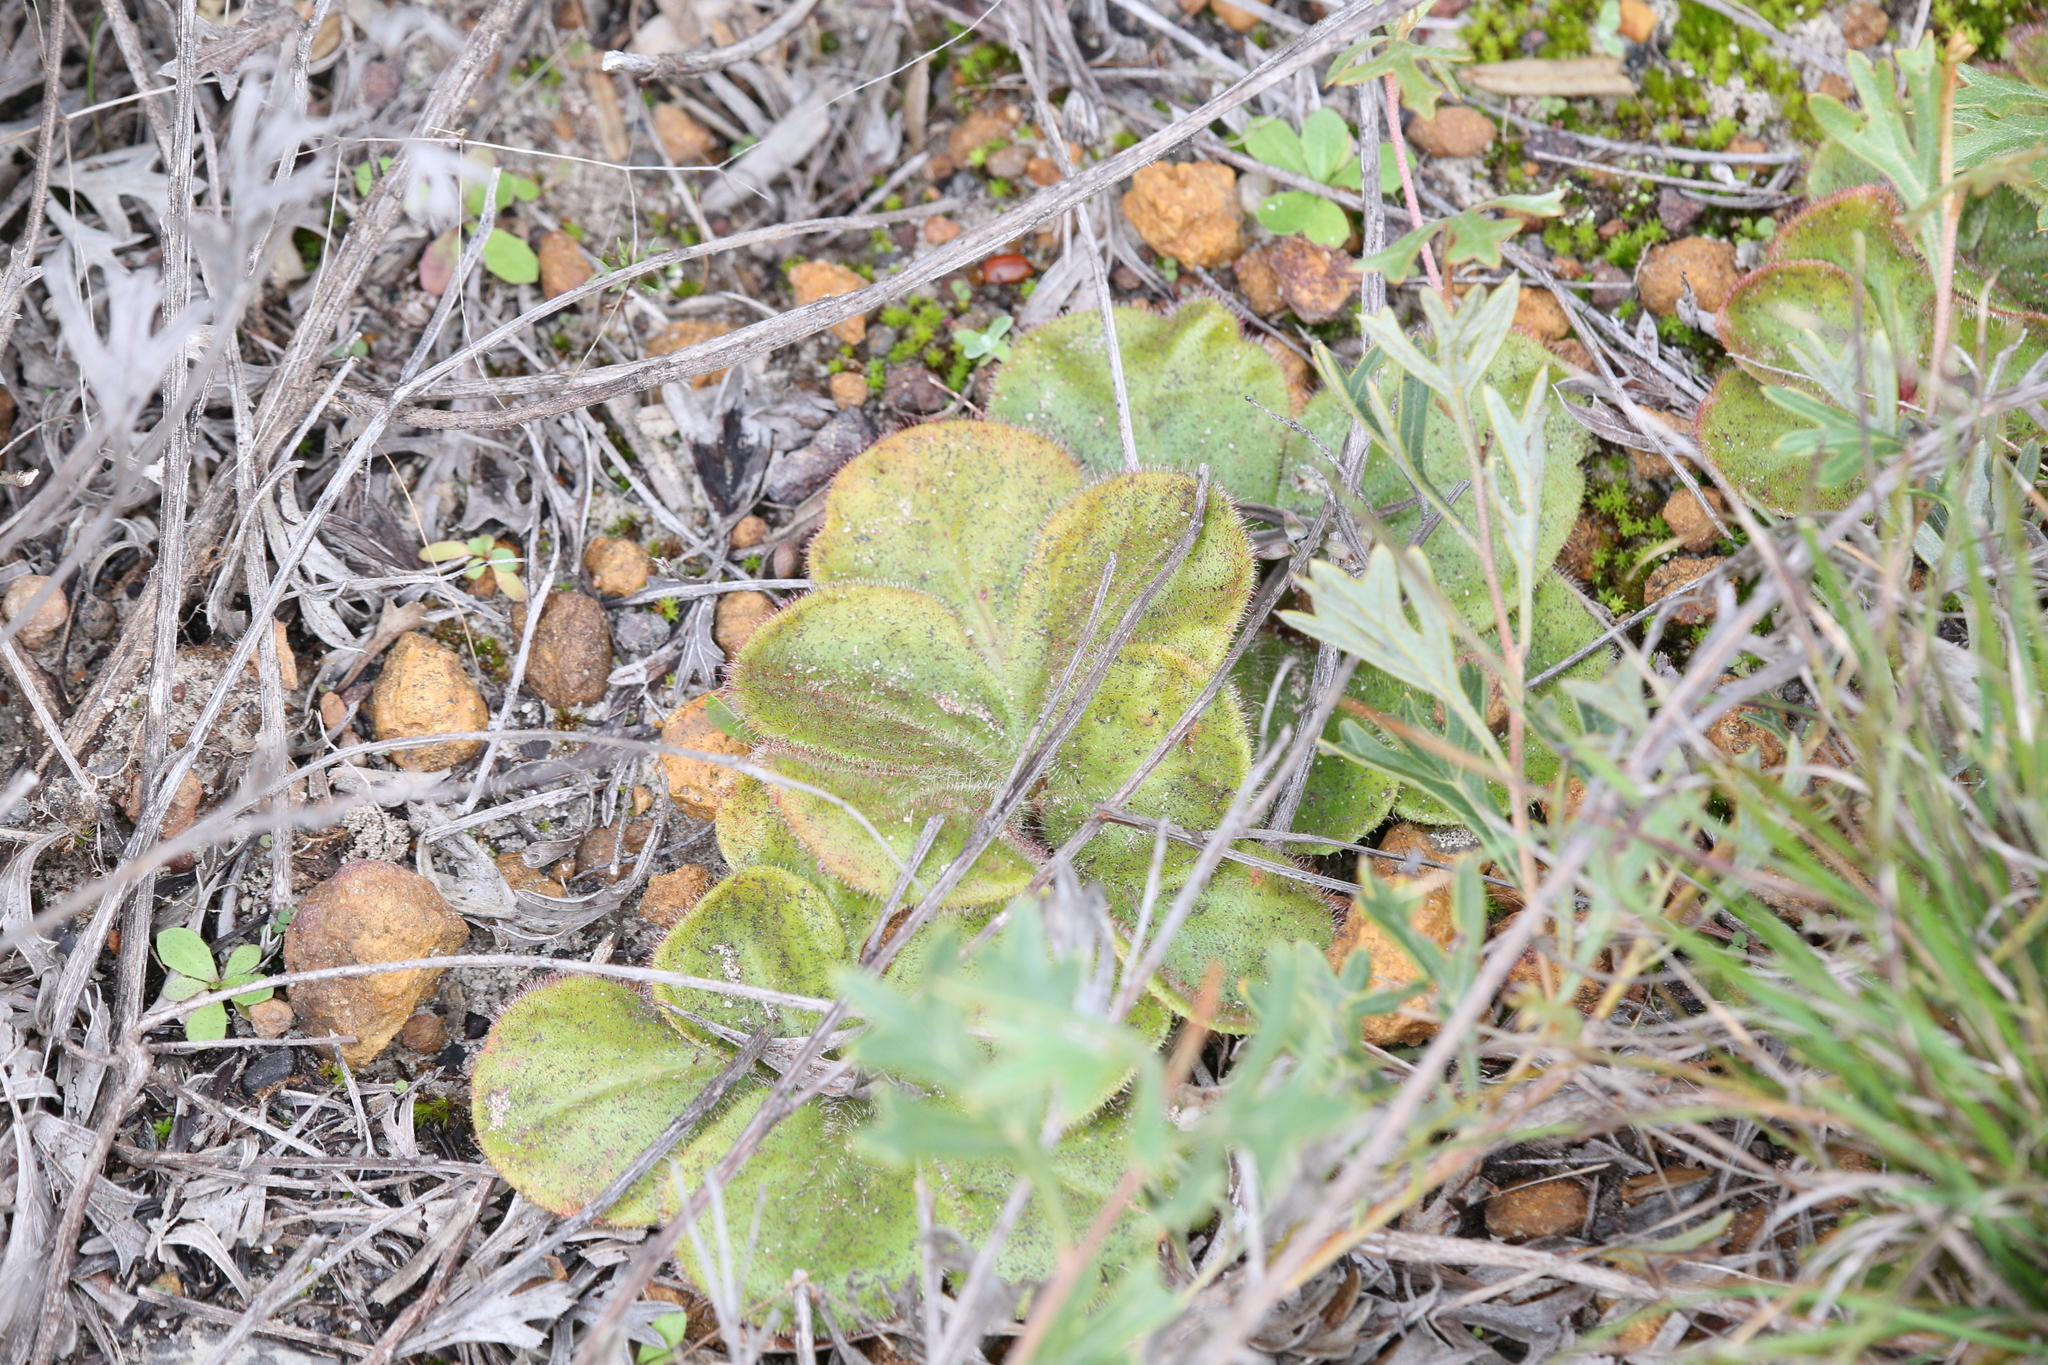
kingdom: Plantae
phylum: Tracheophyta
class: Magnoliopsida
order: Caryophyllales
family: Droseraceae
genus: Drosera
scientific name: Drosera erythrorhiza
